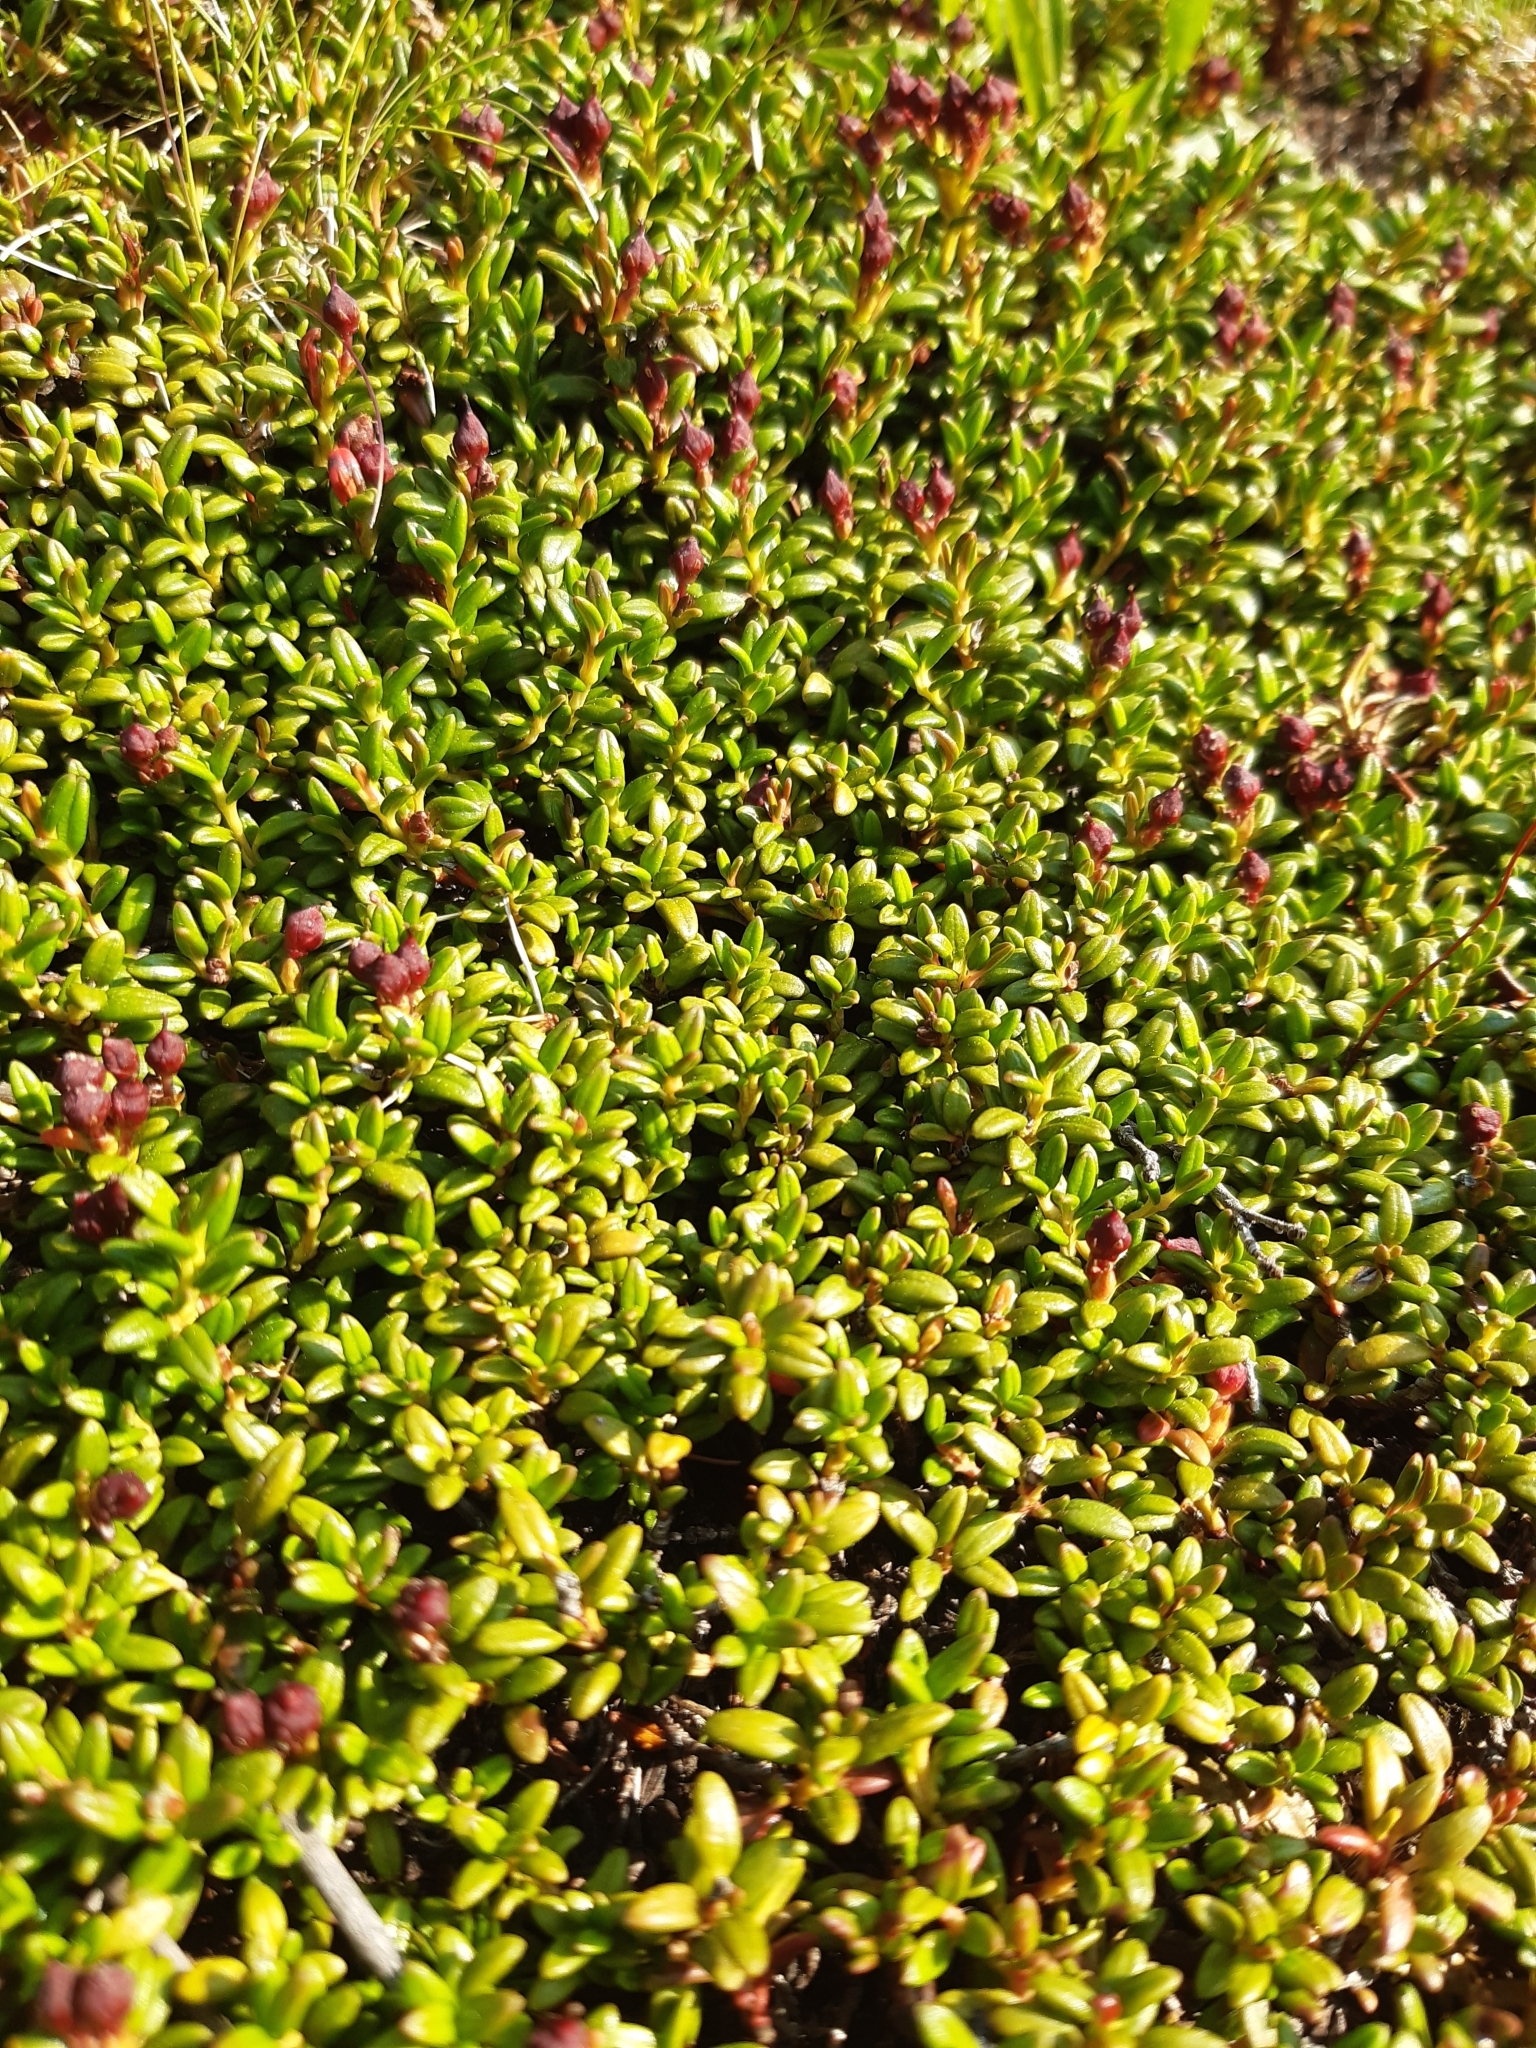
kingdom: Plantae
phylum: Tracheophyta
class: Magnoliopsida
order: Ericales
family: Ericaceae
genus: Kalmia
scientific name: Kalmia procumbens
